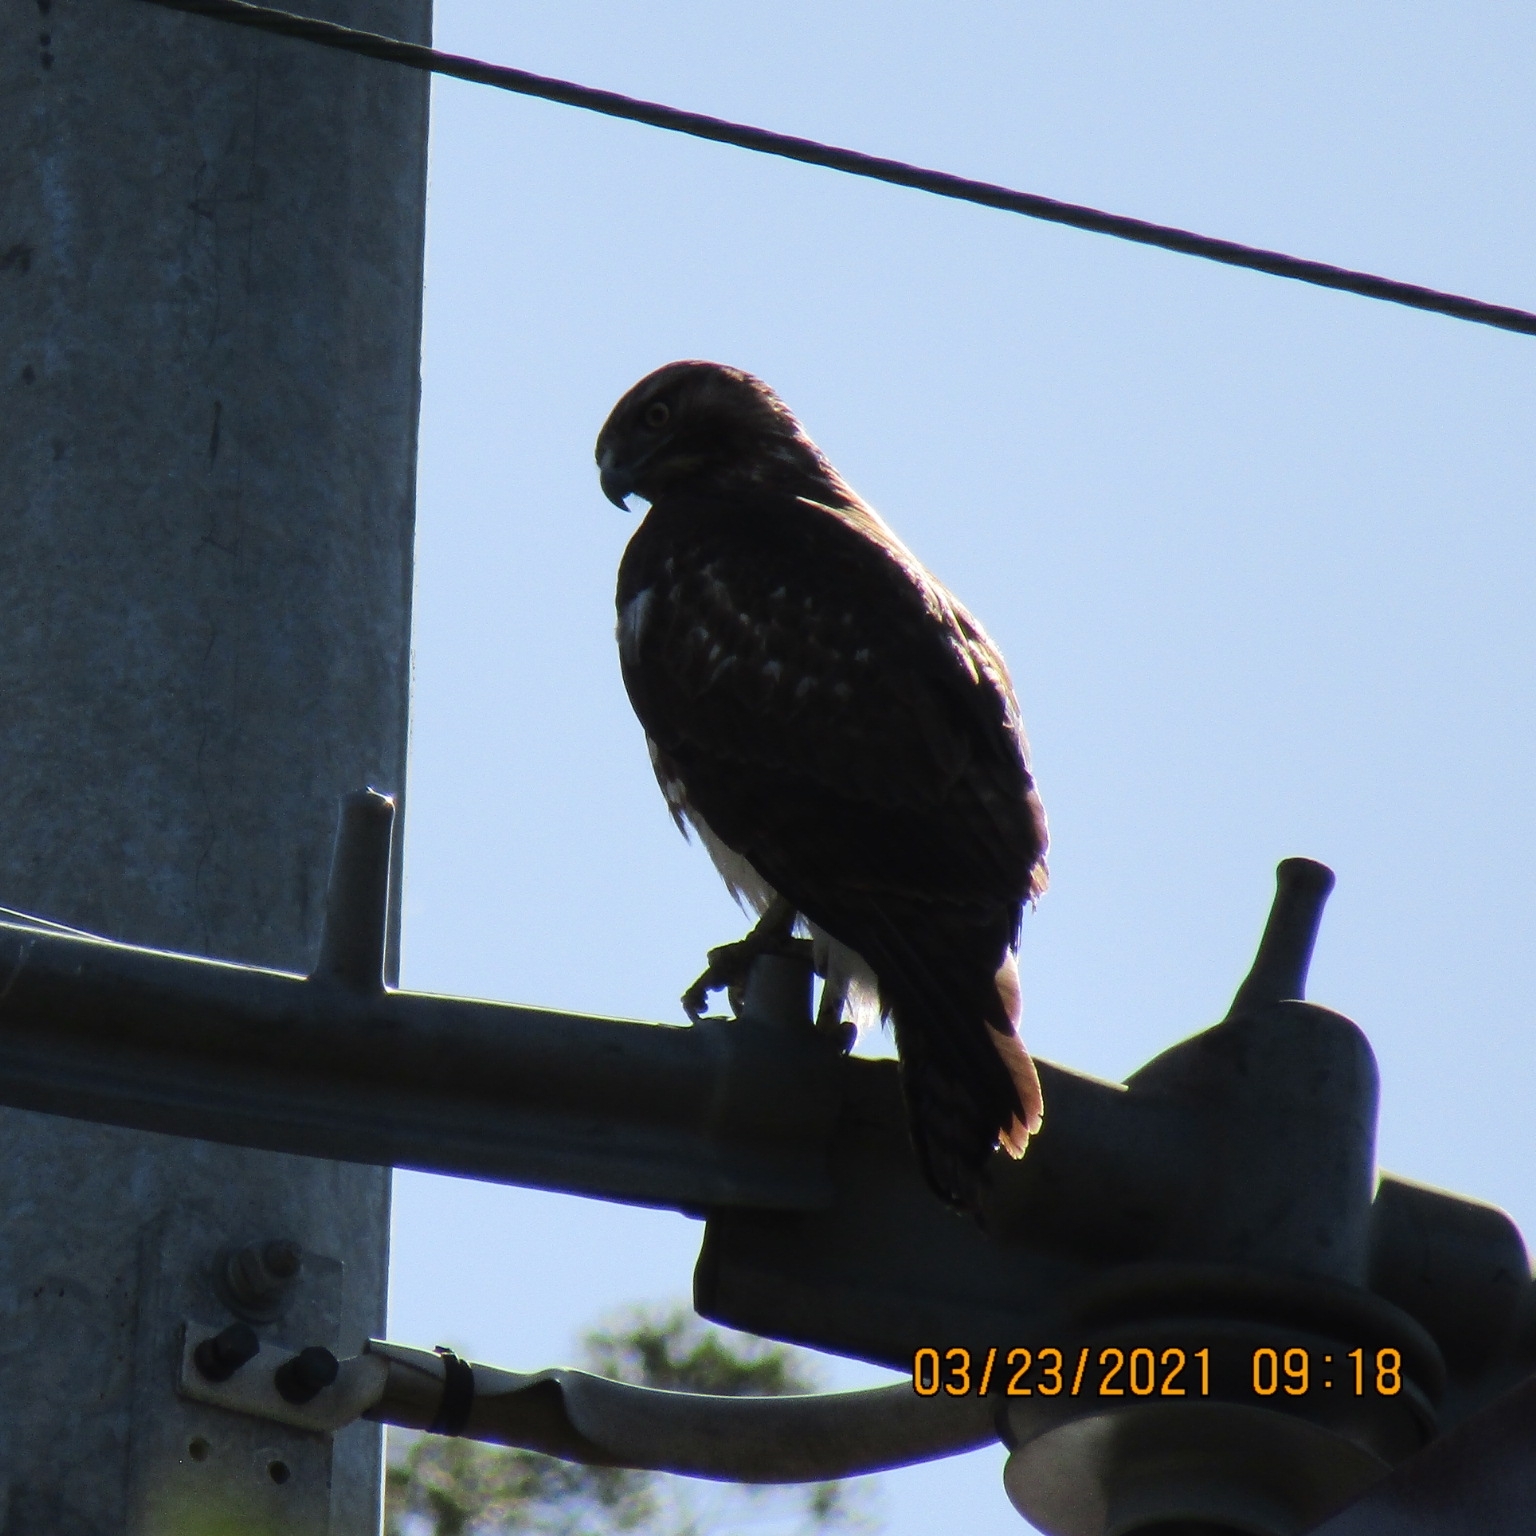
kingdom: Animalia
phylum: Chordata
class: Aves
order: Accipitriformes
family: Accipitridae
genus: Buteo
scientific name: Buteo jamaicensis
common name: Red-tailed hawk
